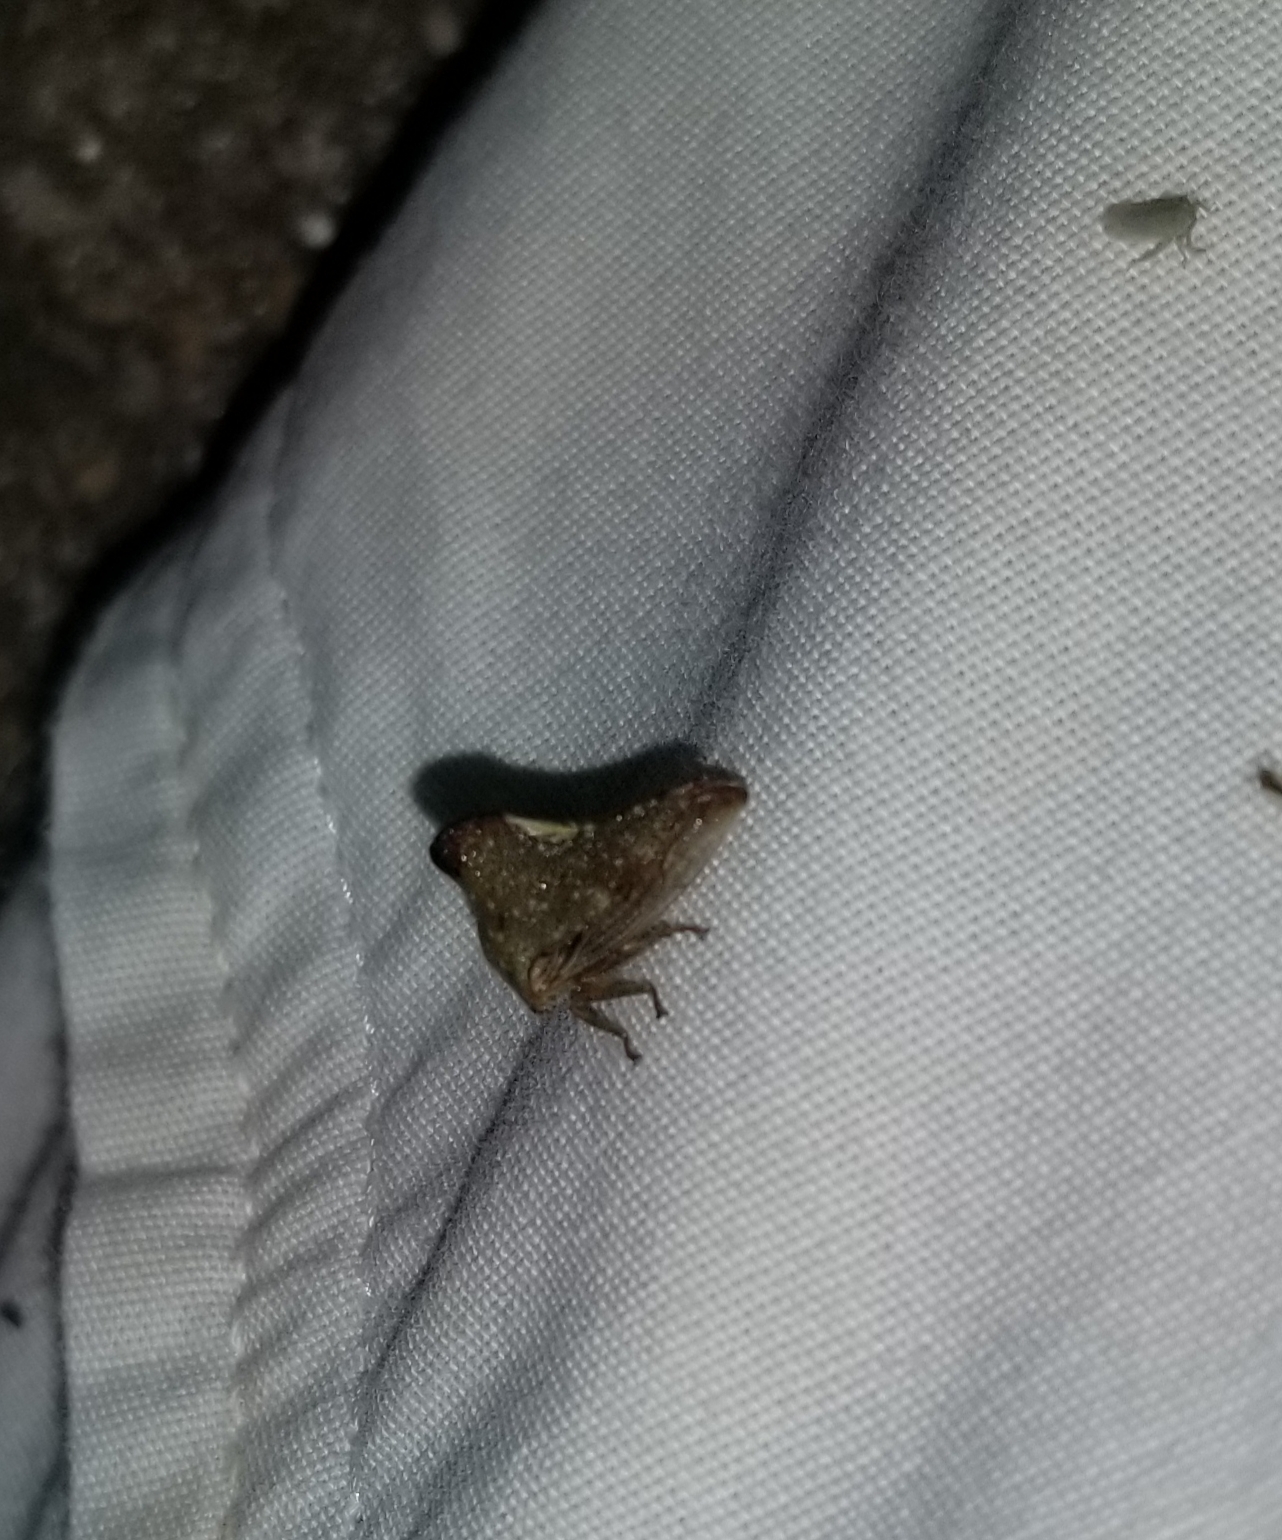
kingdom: Animalia
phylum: Arthropoda
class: Insecta
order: Hemiptera
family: Membracidae
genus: Telamona
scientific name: Telamona monticola
